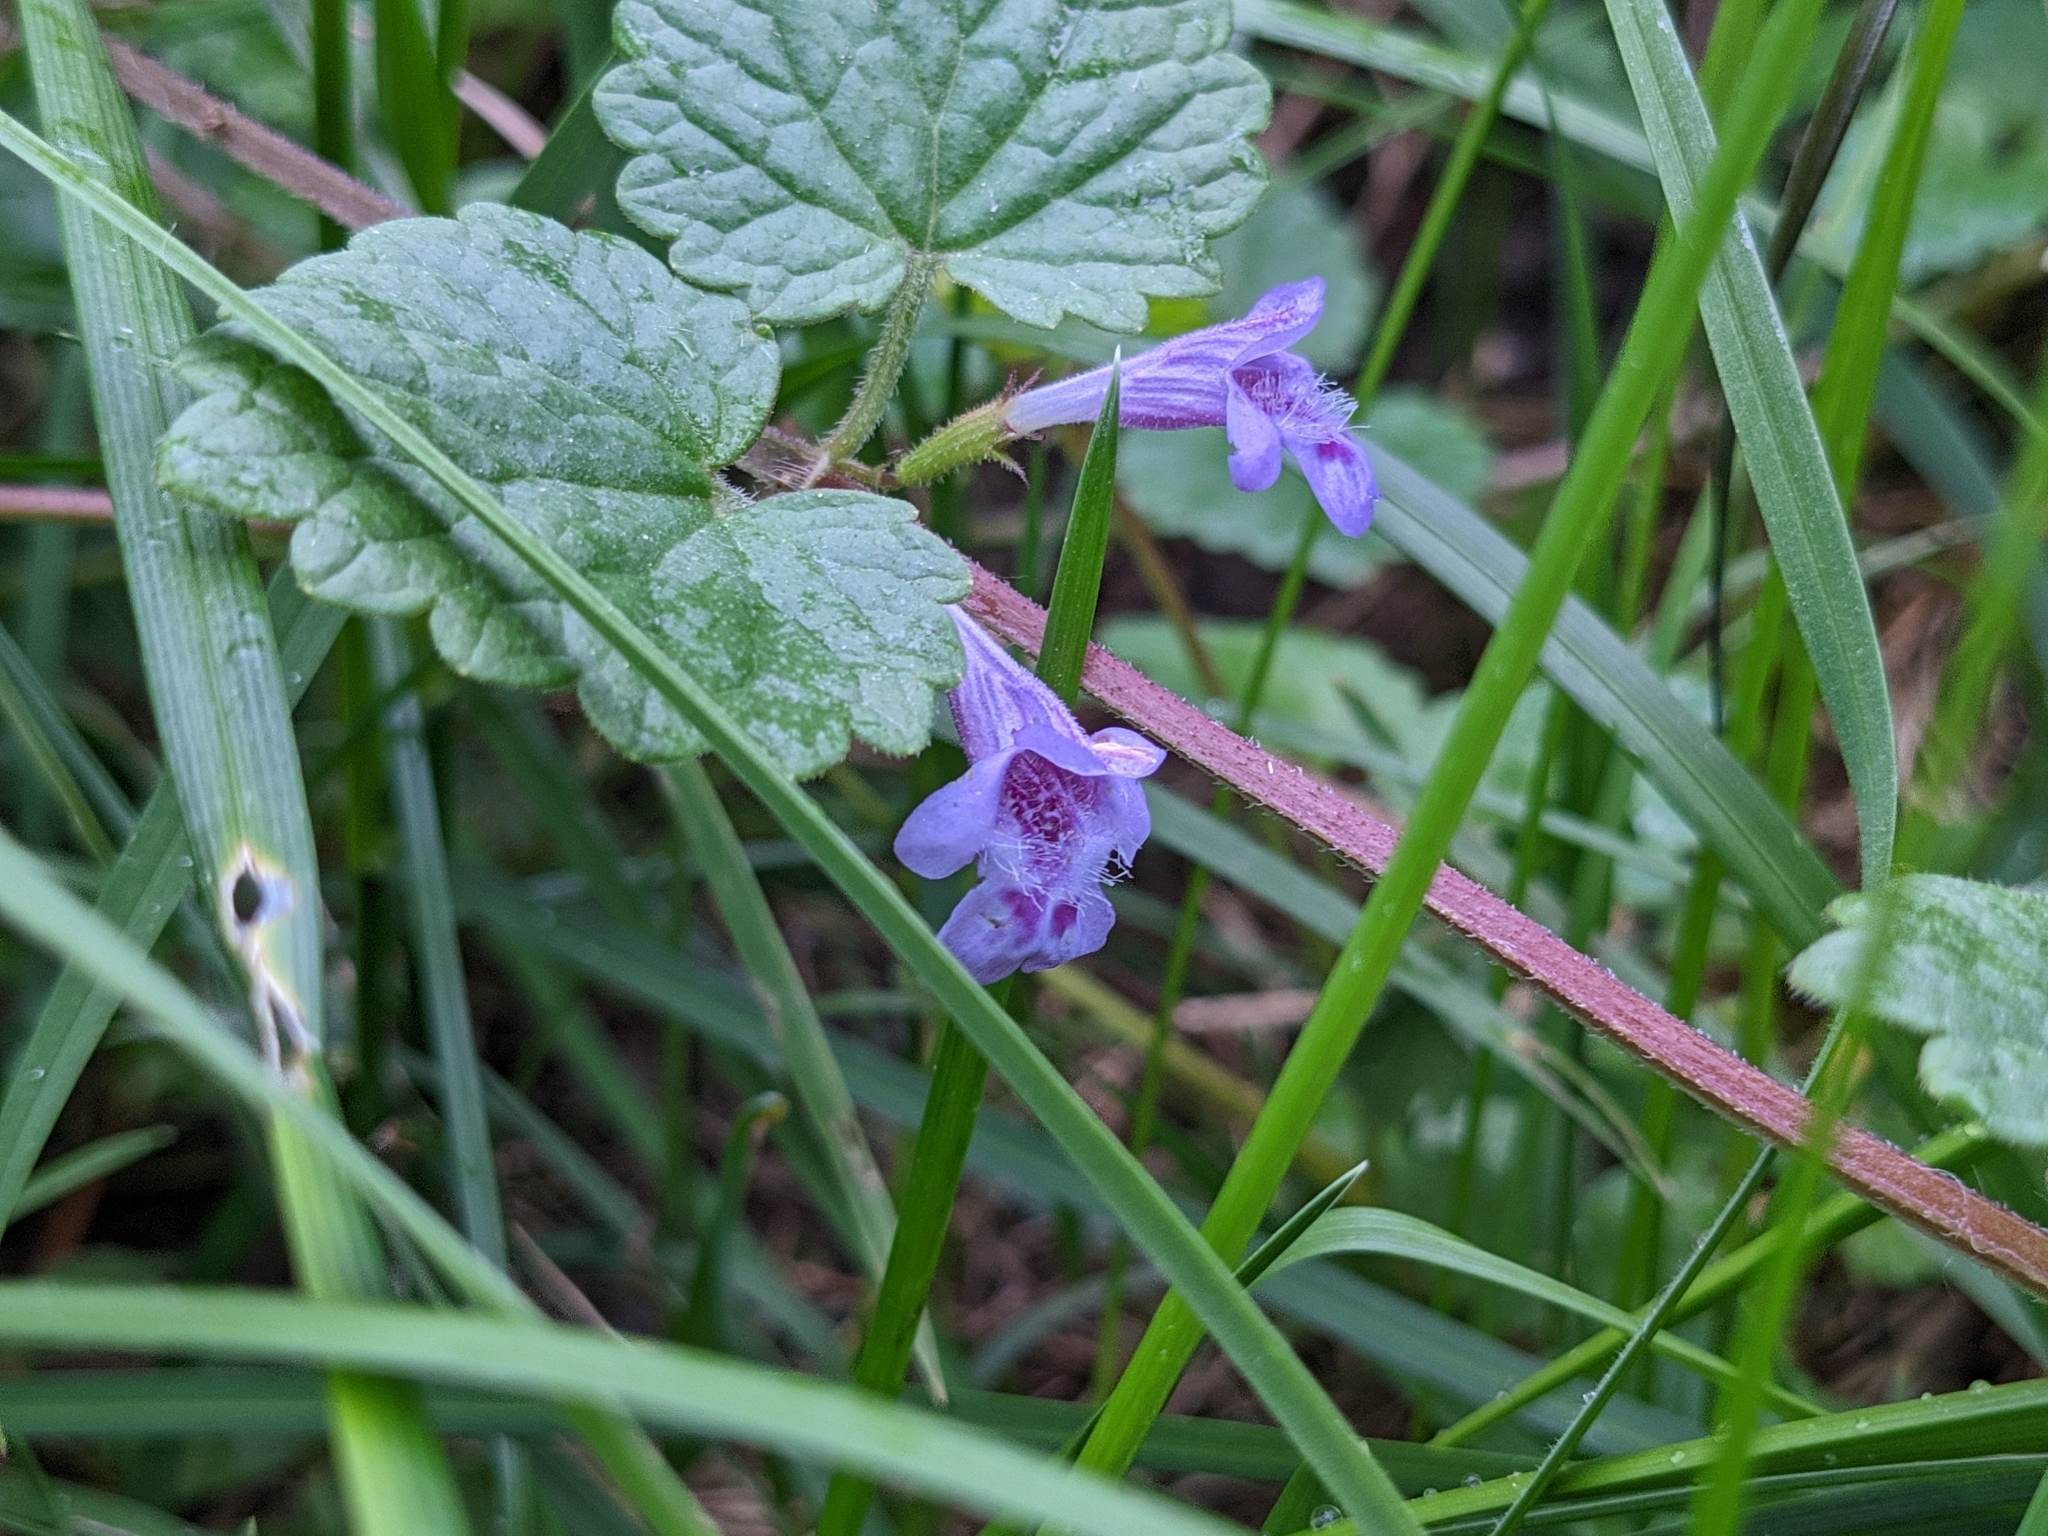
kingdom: Plantae
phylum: Tracheophyta
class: Magnoliopsida
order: Lamiales
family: Lamiaceae
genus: Glechoma
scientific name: Glechoma hederacea
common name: Ground ivy
